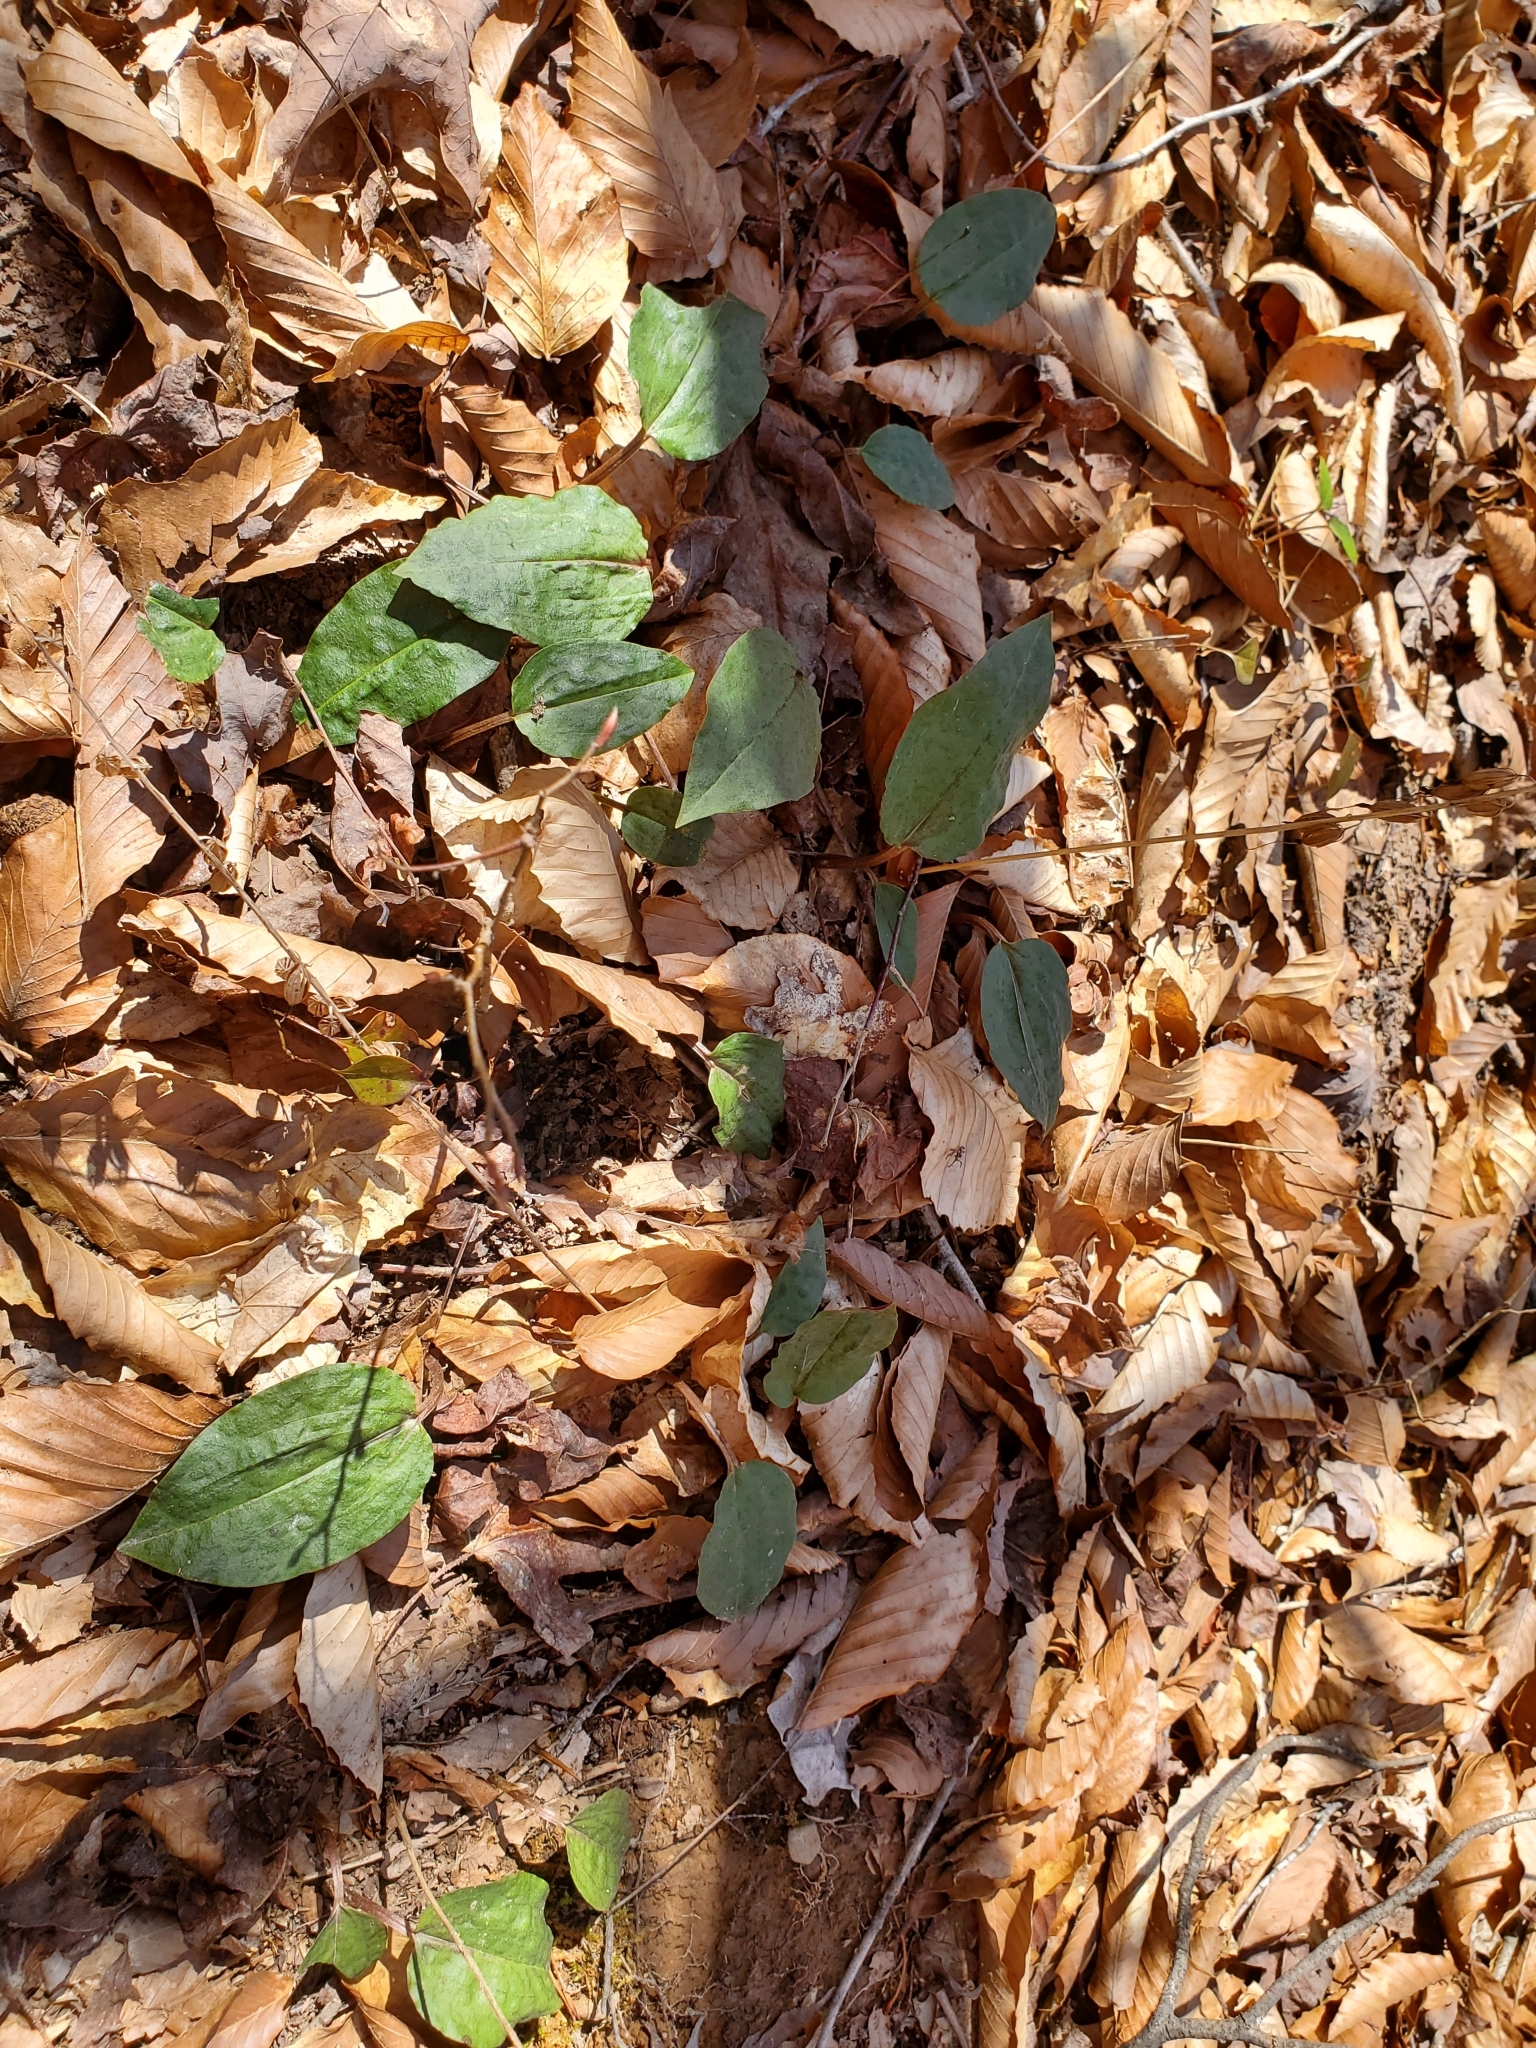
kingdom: Plantae
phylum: Tracheophyta
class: Liliopsida
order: Asparagales
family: Orchidaceae
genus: Tipularia
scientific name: Tipularia discolor
